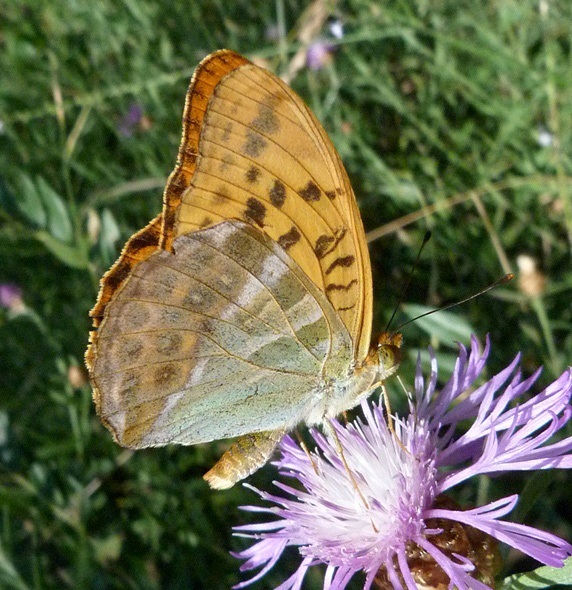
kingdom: Animalia
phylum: Arthropoda
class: Insecta
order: Lepidoptera
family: Nymphalidae
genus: Argynnis
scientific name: Argynnis paphia
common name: Silver-washed fritillary
